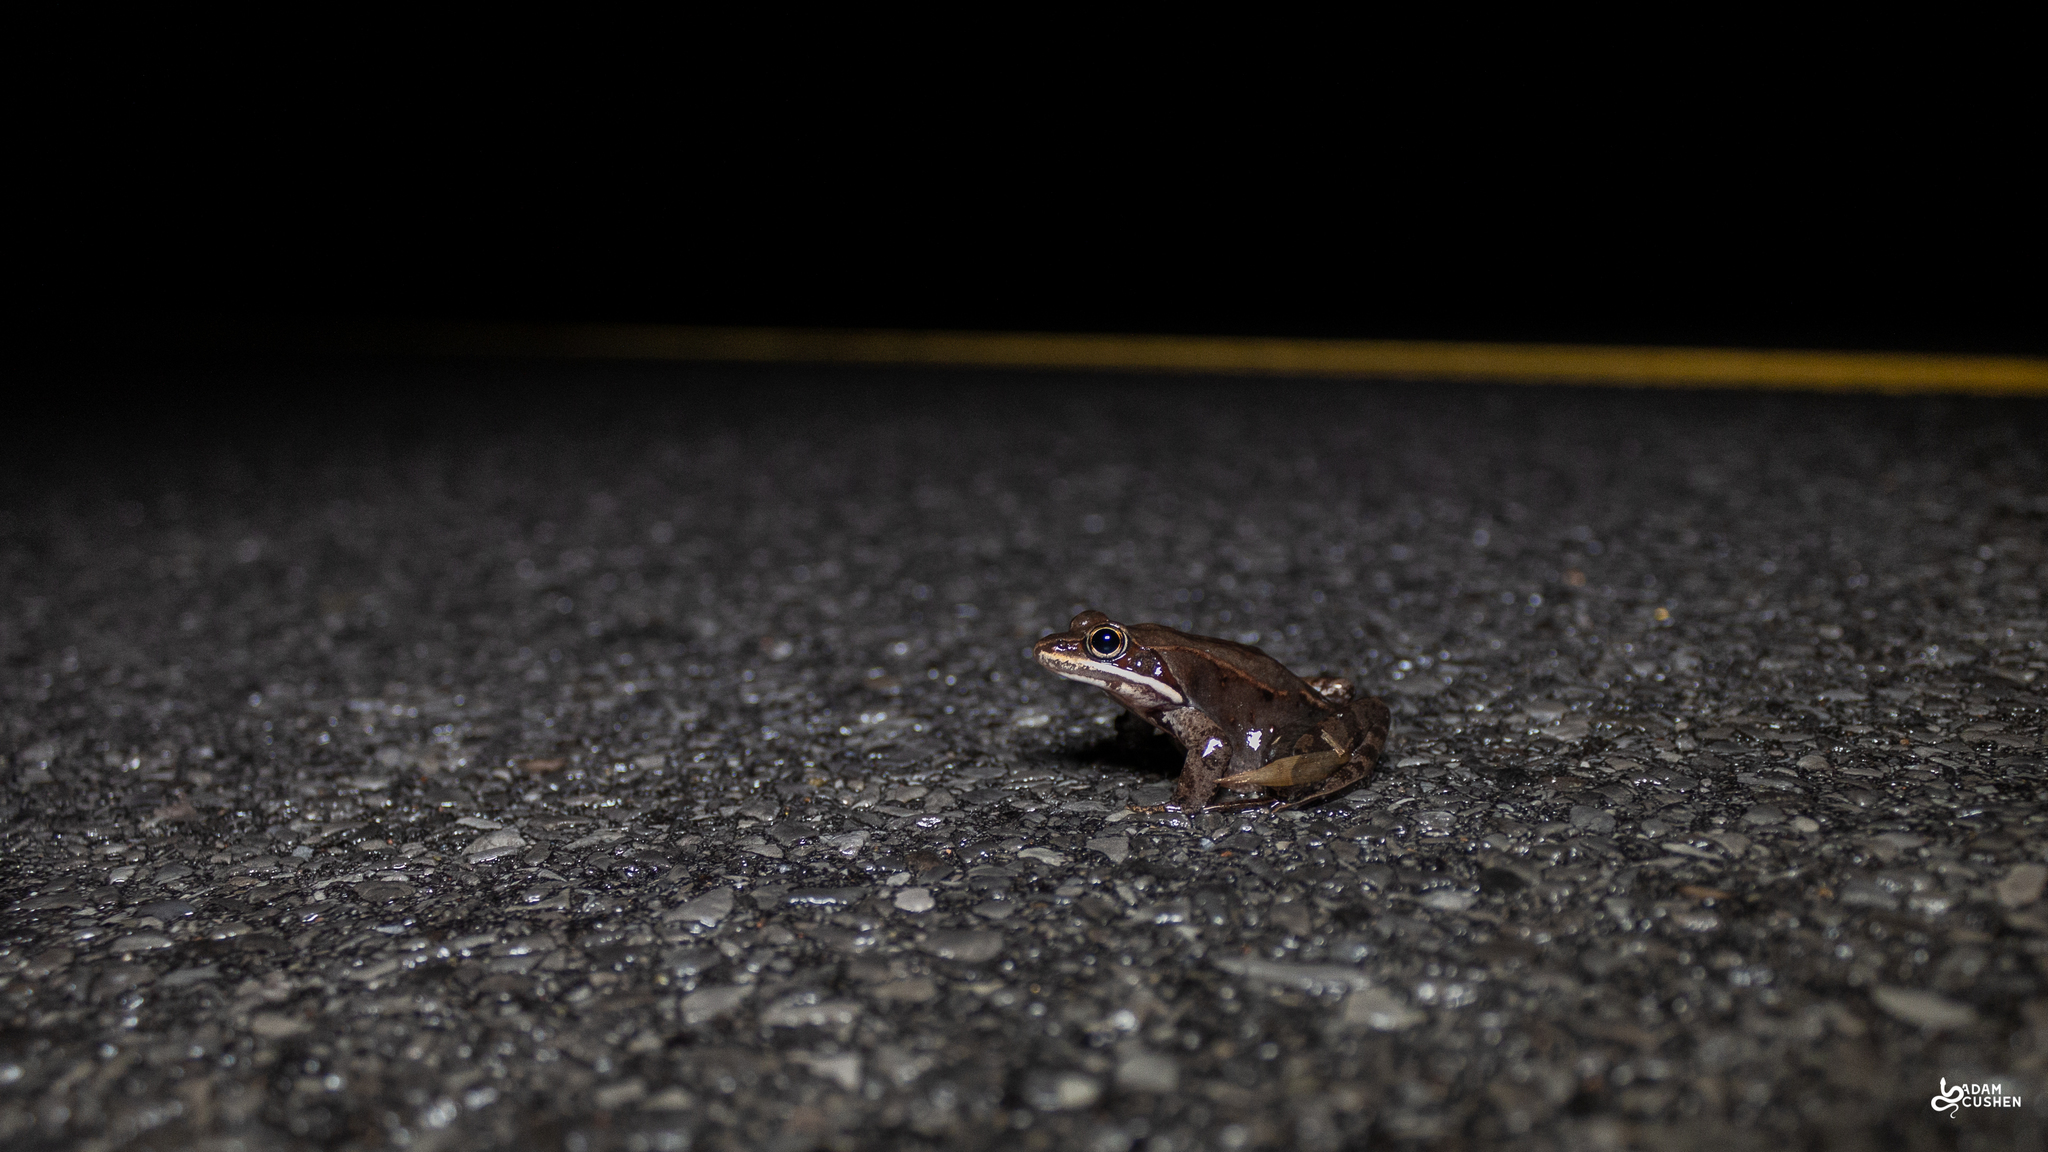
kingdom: Animalia
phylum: Chordata
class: Amphibia
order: Anura
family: Ranidae
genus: Lithobates
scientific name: Lithobates sylvaticus
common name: Wood frog
